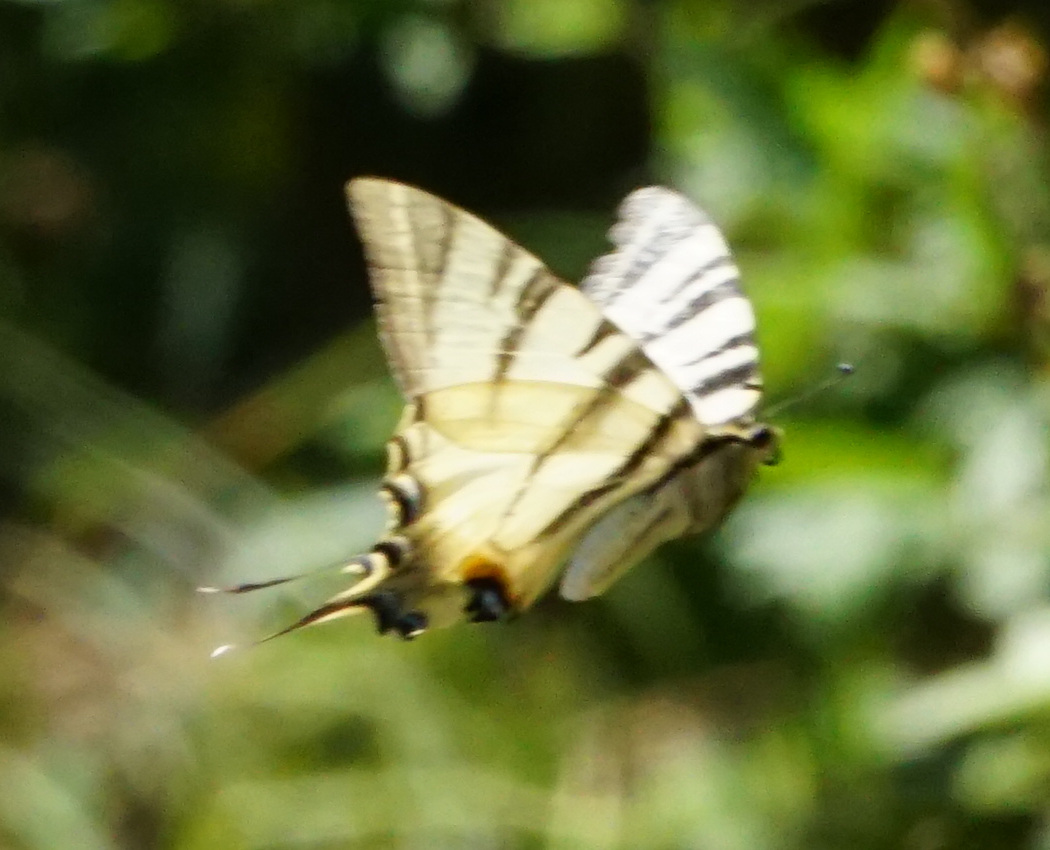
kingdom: Animalia
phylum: Arthropoda
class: Insecta
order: Lepidoptera
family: Papilionidae
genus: Iphiclides
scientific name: Iphiclides podalirius
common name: Scarce swallowtail
